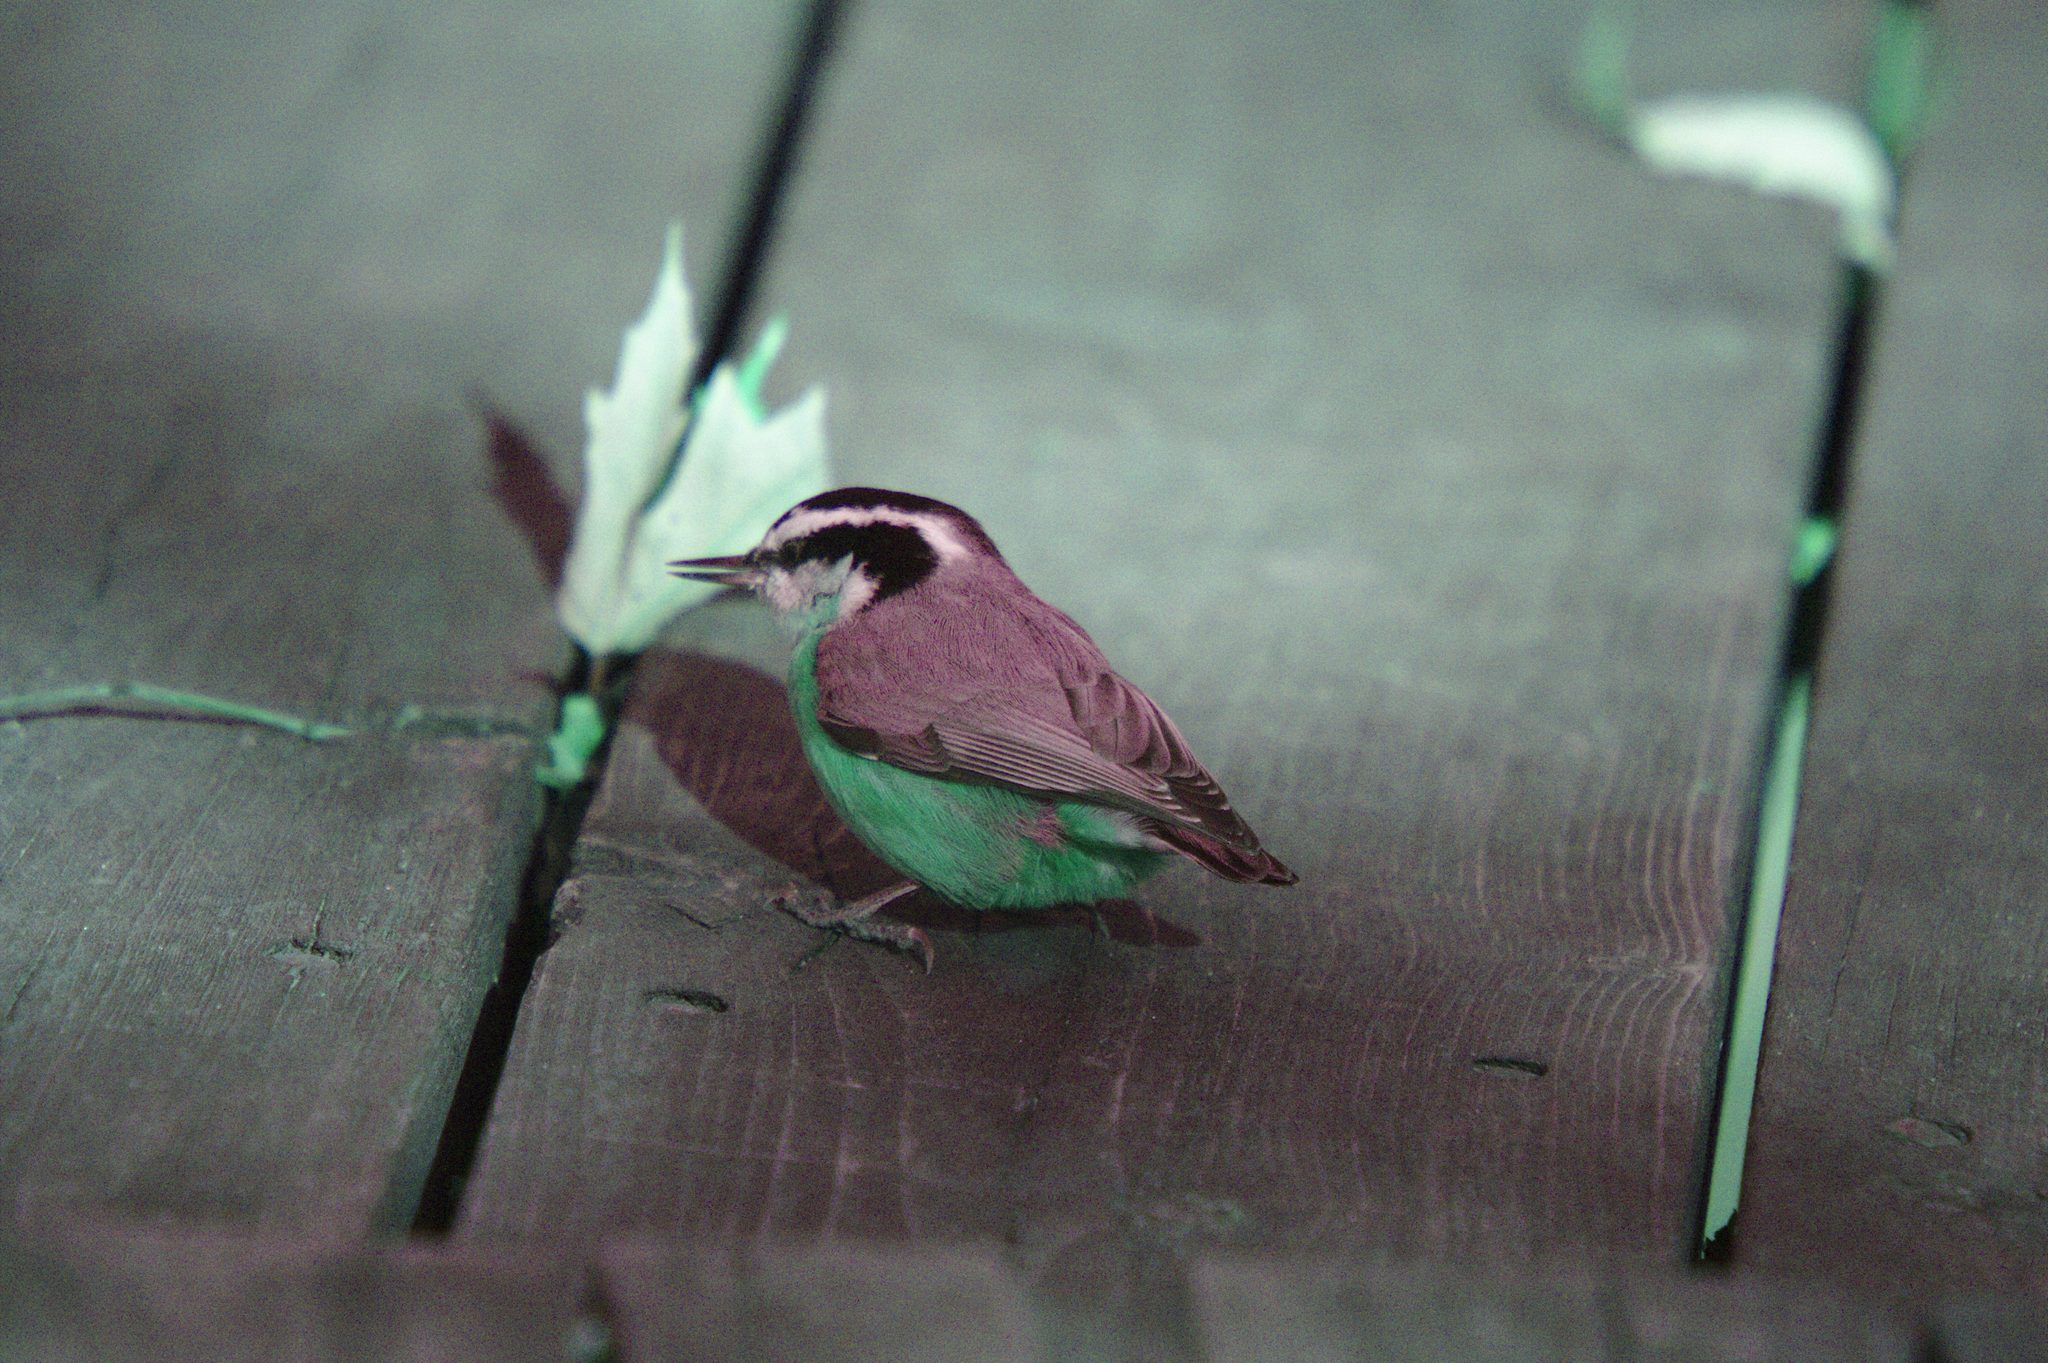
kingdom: Animalia
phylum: Chordata
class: Aves
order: Passeriformes
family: Sittidae
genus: Sitta
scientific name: Sitta canadensis
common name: Red-breasted nuthatch
